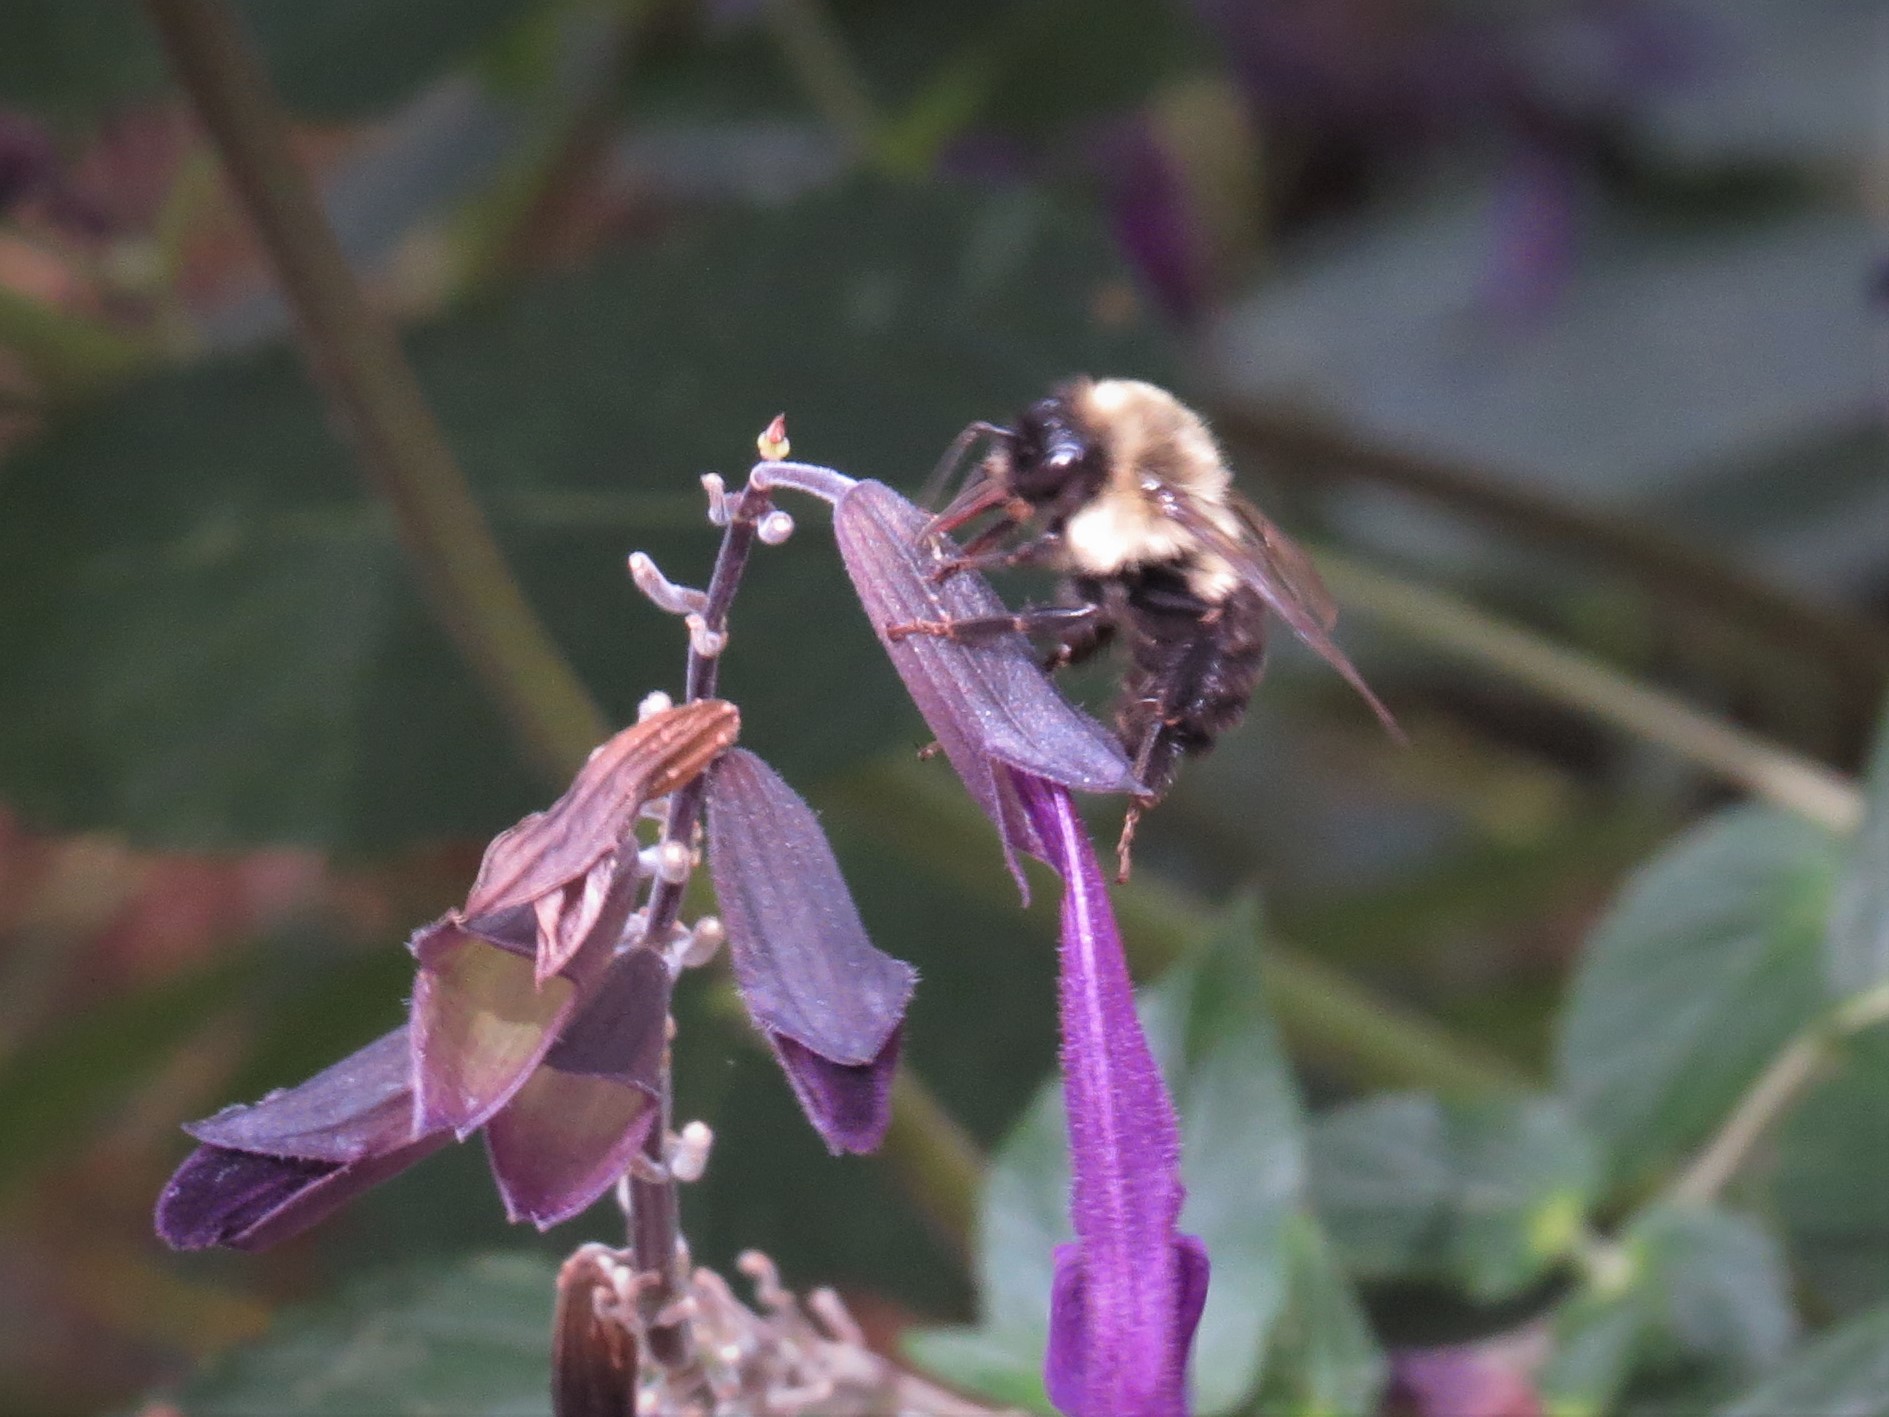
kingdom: Animalia
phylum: Arthropoda
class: Insecta
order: Hymenoptera
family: Apidae
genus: Bombus
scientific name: Bombus impatiens
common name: Common eastern bumble bee
